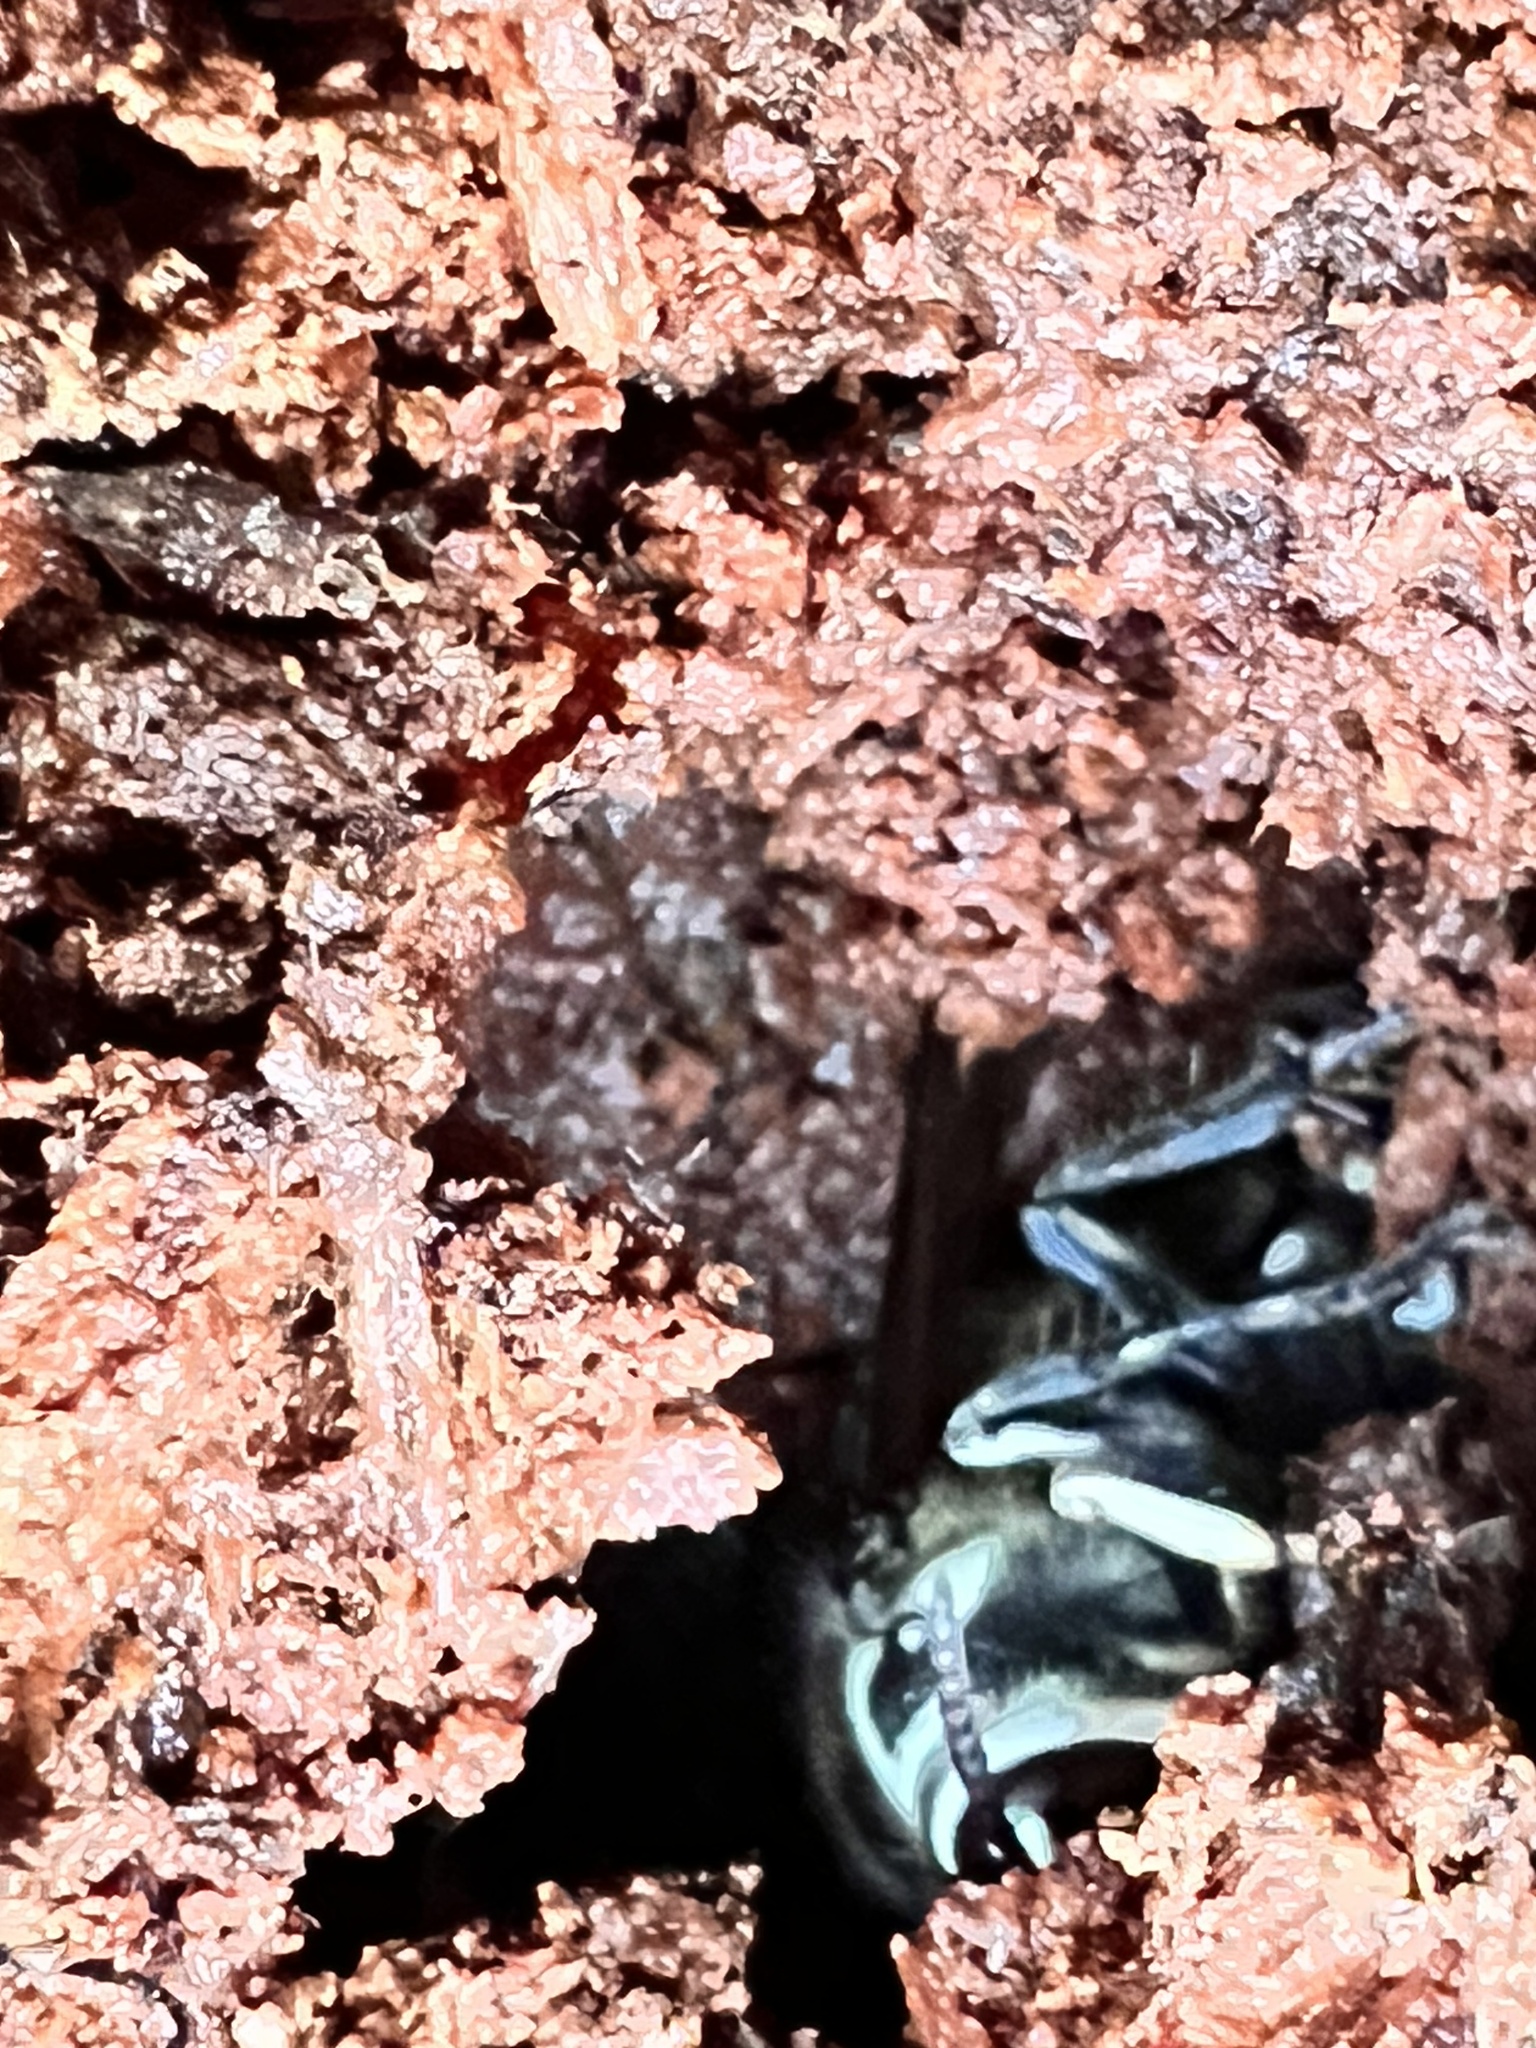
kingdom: Animalia
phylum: Arthropoda
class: Insecta
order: Hymenoptera
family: Vespidae
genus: Dolichovespula
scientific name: Dolichovespula maculata
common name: Bald-faced hornet
